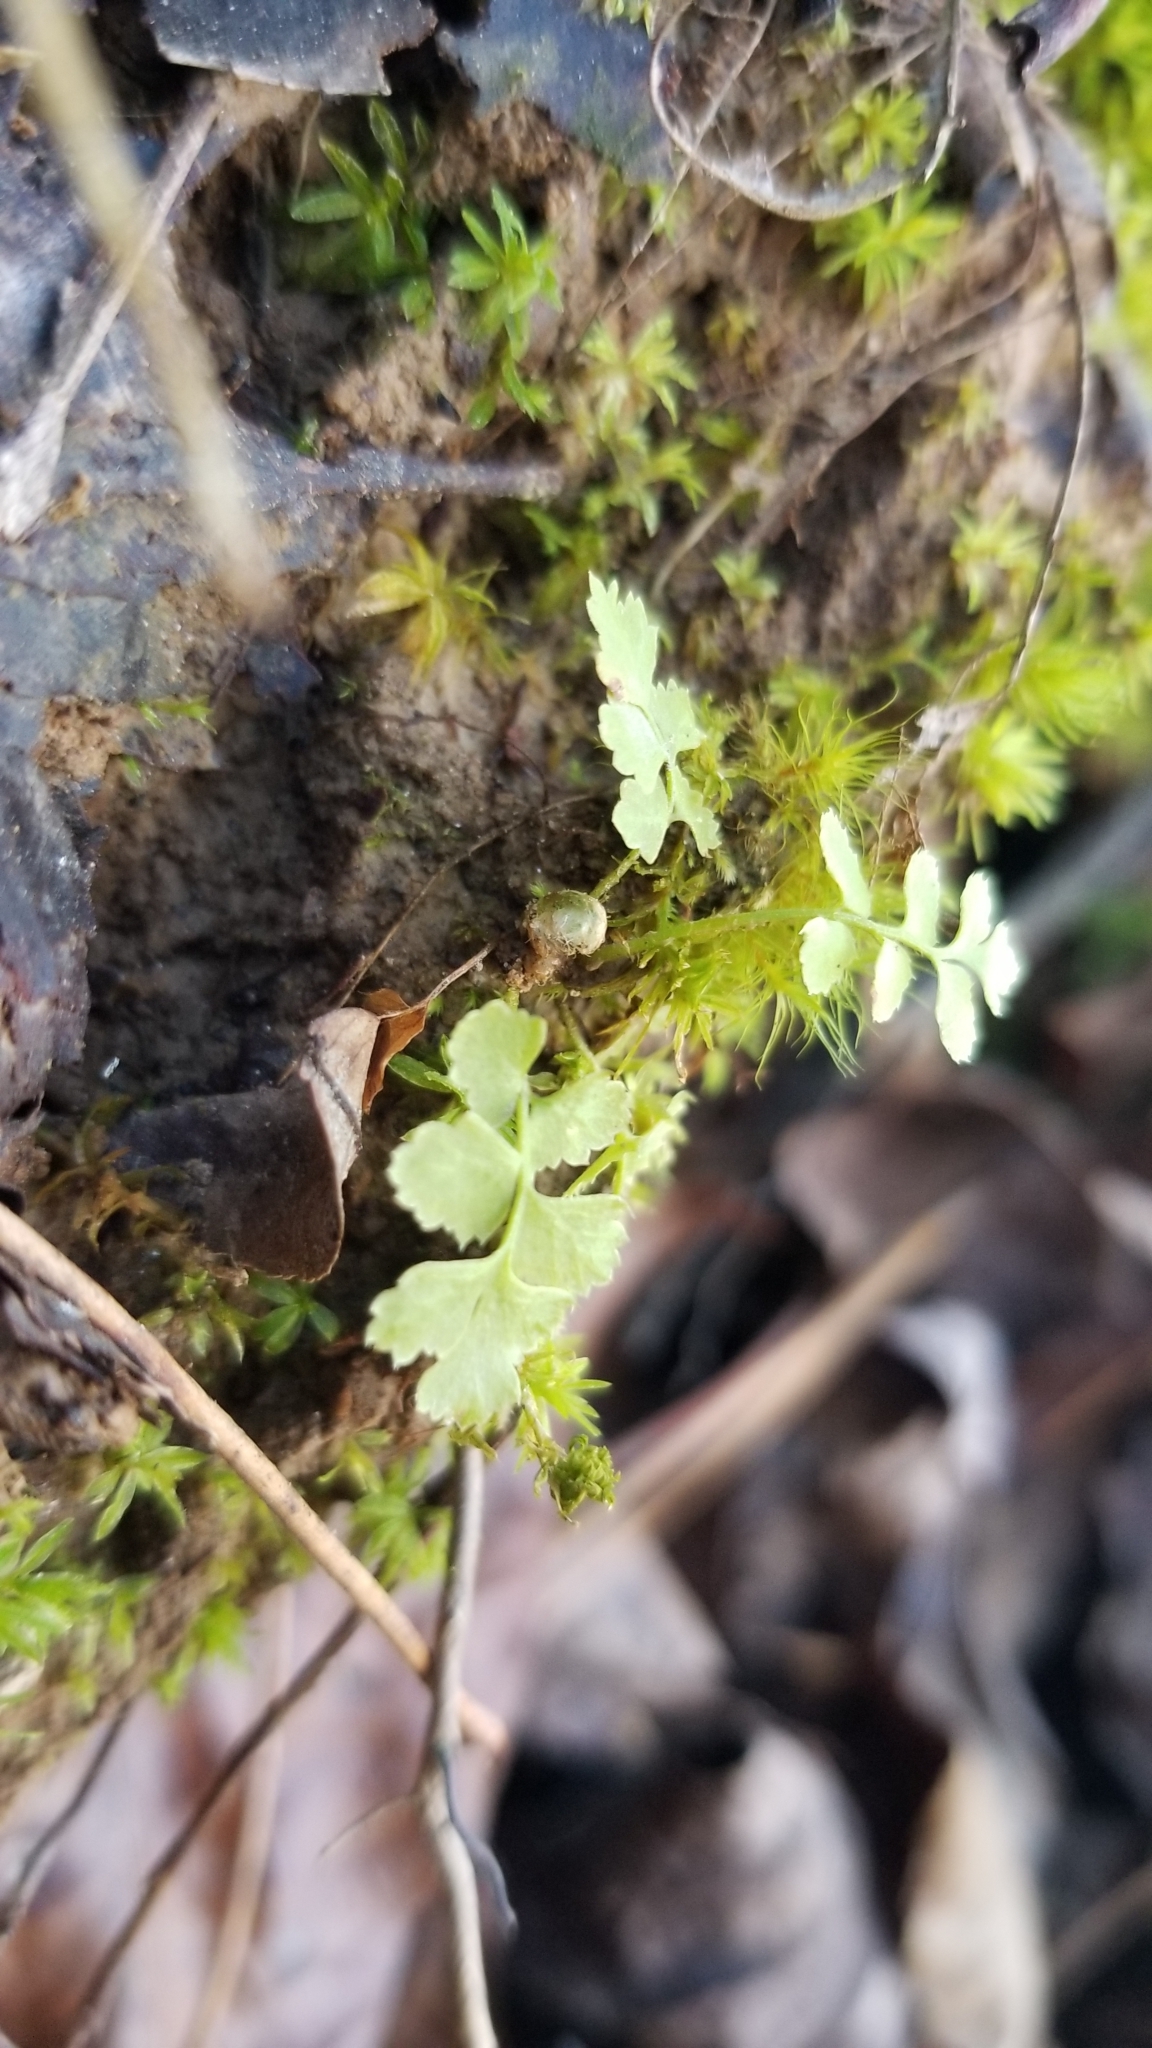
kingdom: Plantae
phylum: Tracheophyta
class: Polypodiopsida
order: Polypodiales
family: Dryopteridaceae
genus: Polystichum
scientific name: Polystichum acrostichoides
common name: Christmas fern
